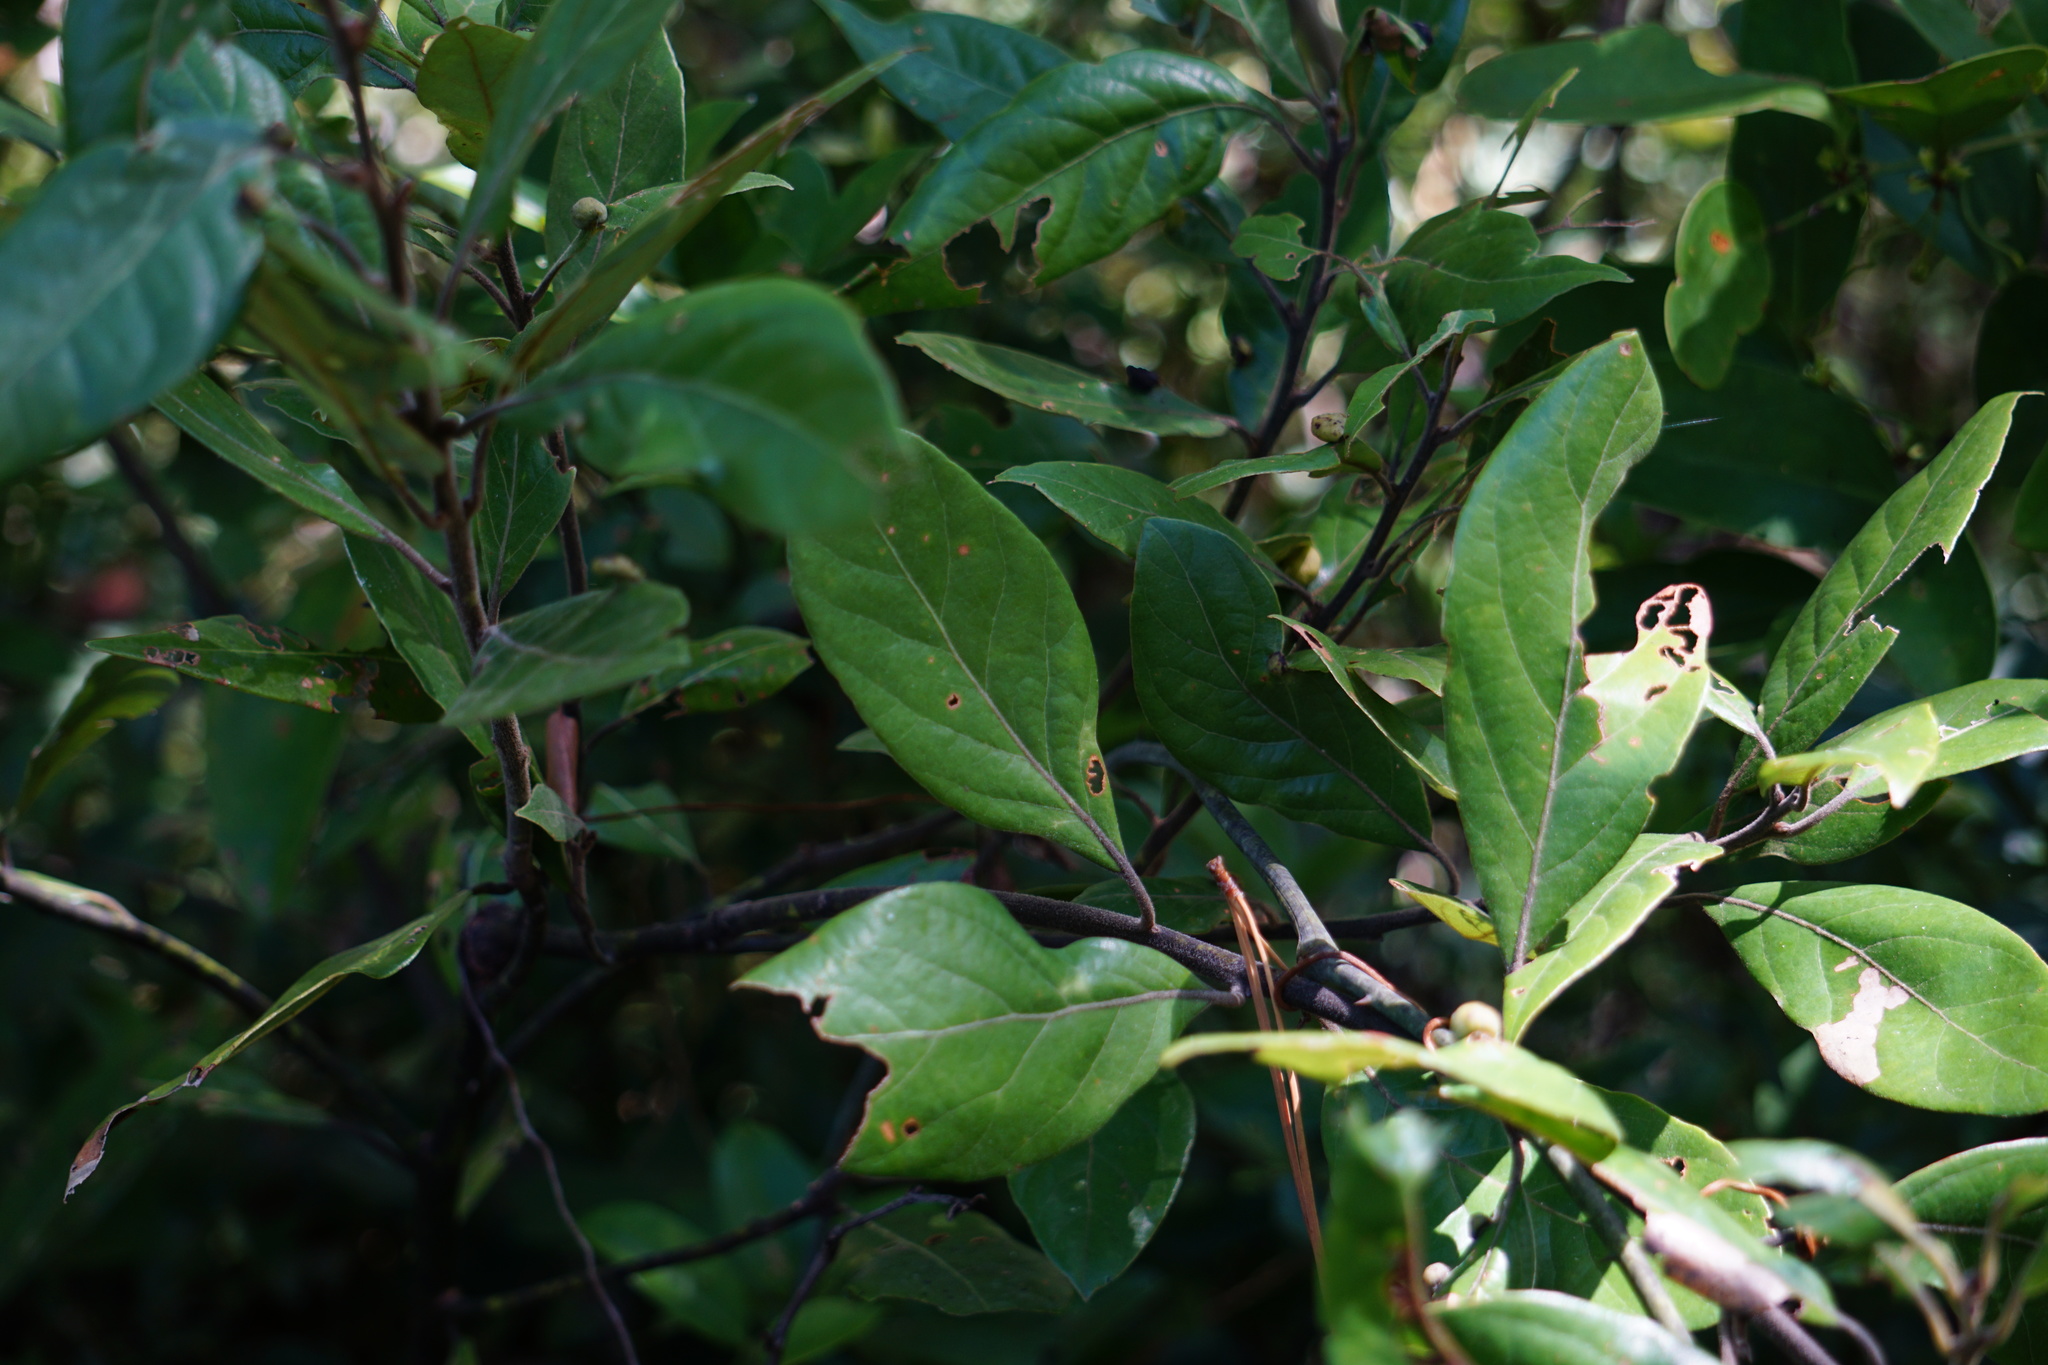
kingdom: Plantae
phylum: Tracheophyta
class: Magnoliopsida
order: Laurales
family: Lauraceae
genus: Persea
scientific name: Persea palustris
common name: Swampbay
